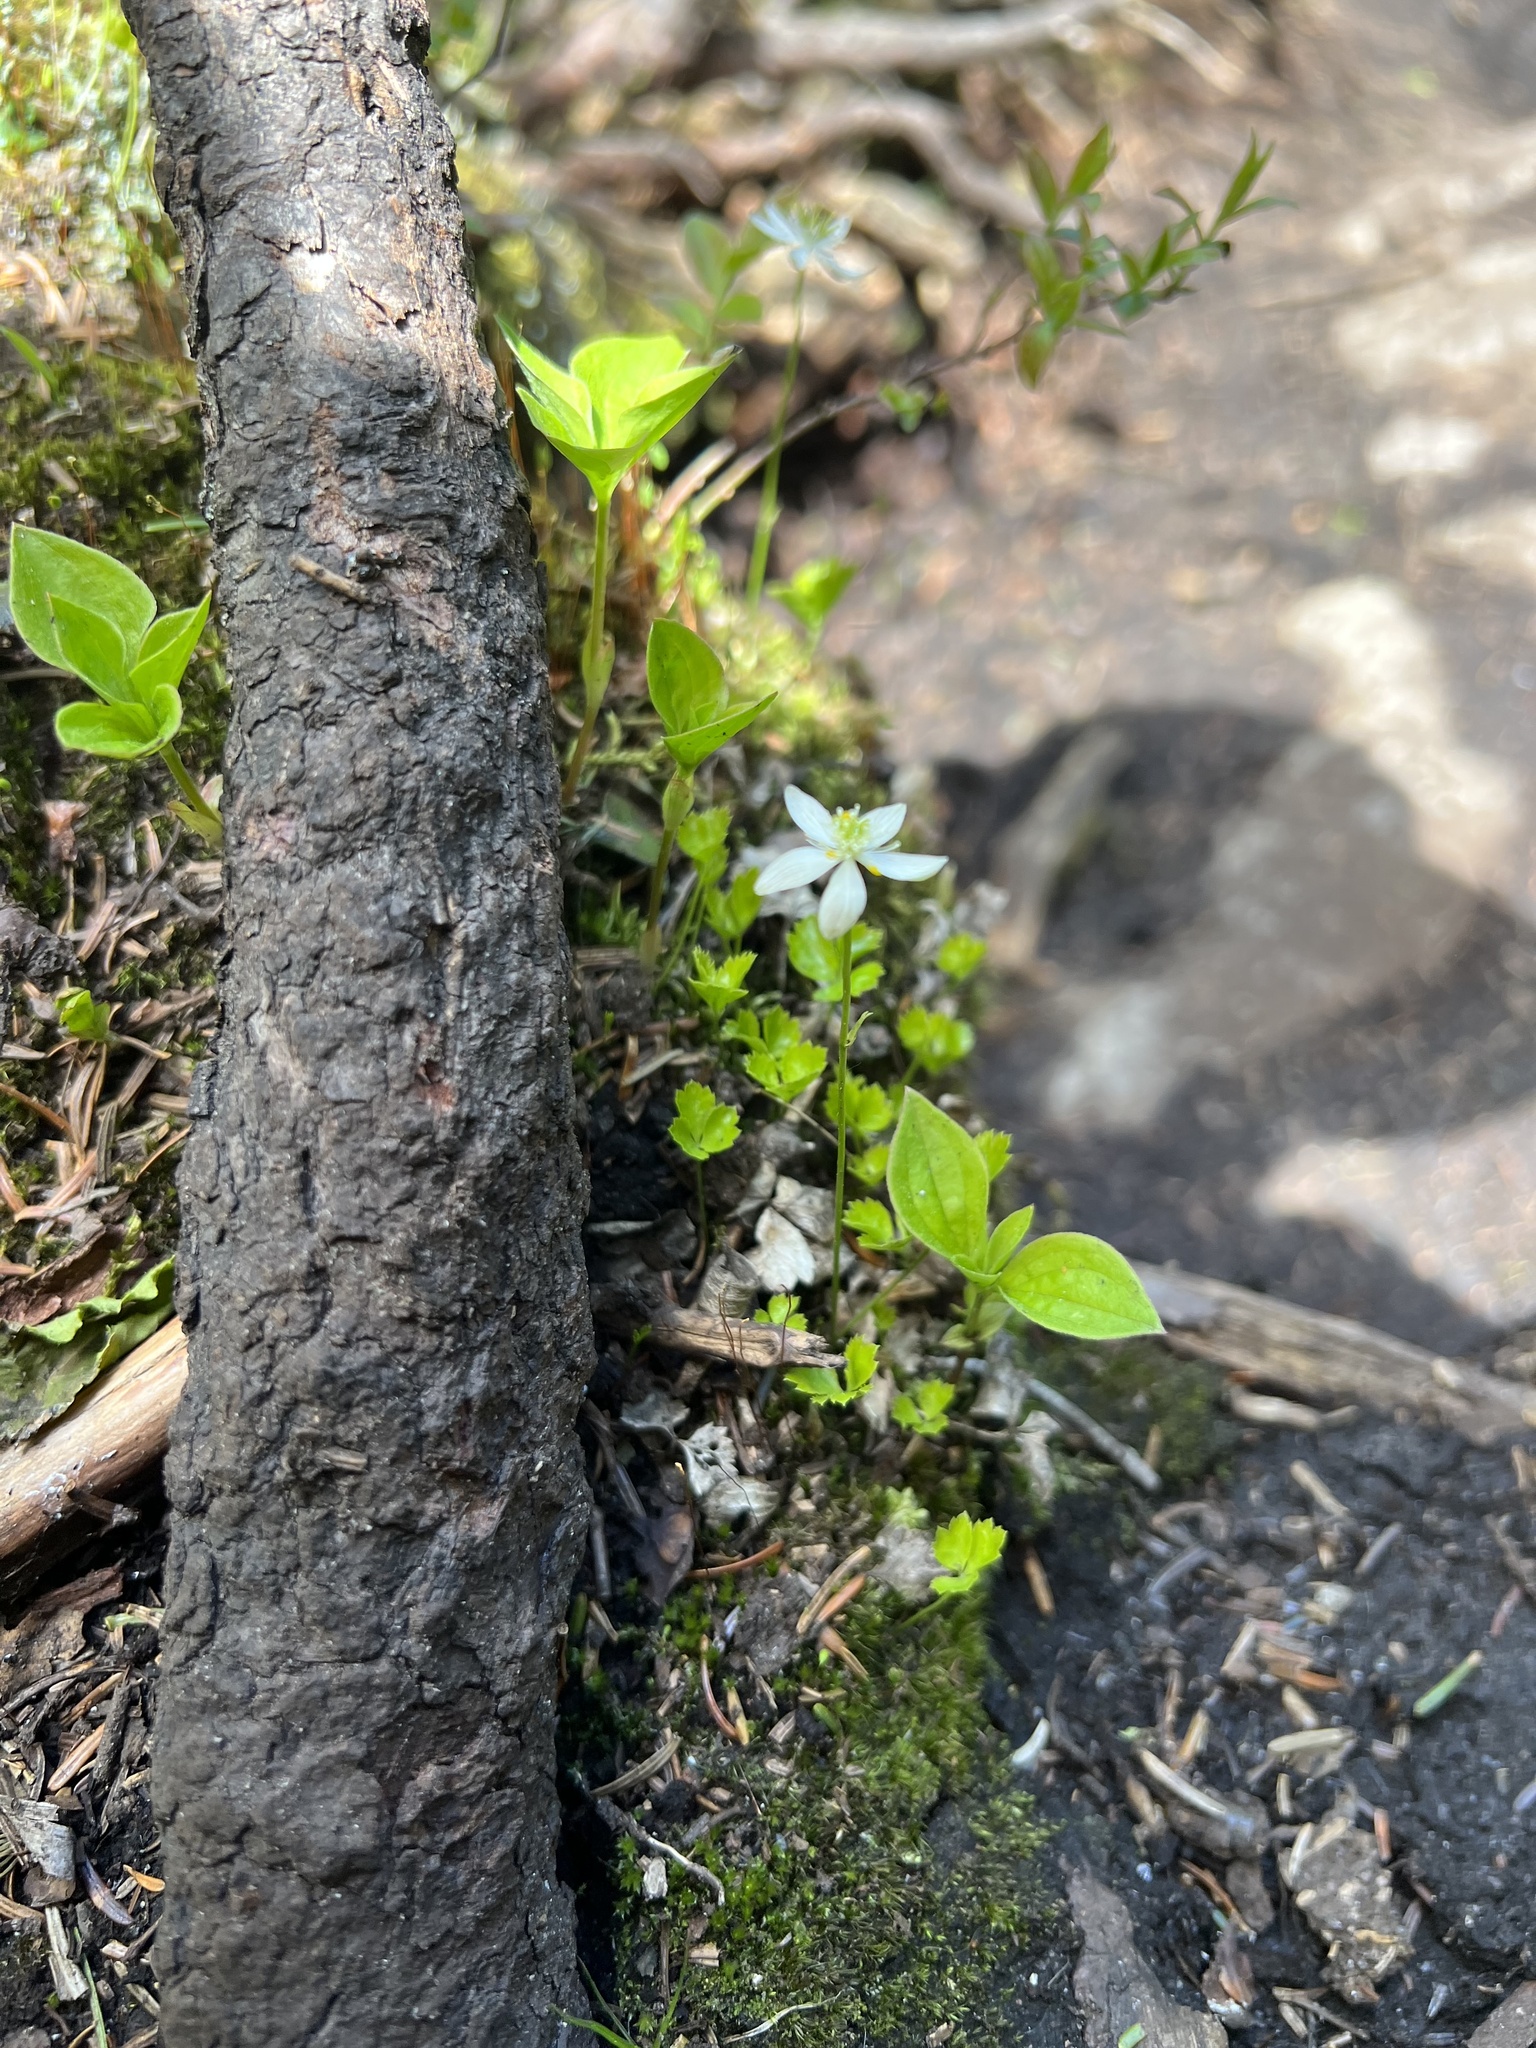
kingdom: Plantae
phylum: Tracheophyta
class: Magnoliopsida
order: Ranunculales
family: Ranunculaceae
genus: Coptis
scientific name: Coptis trifolia
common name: Canker-root
